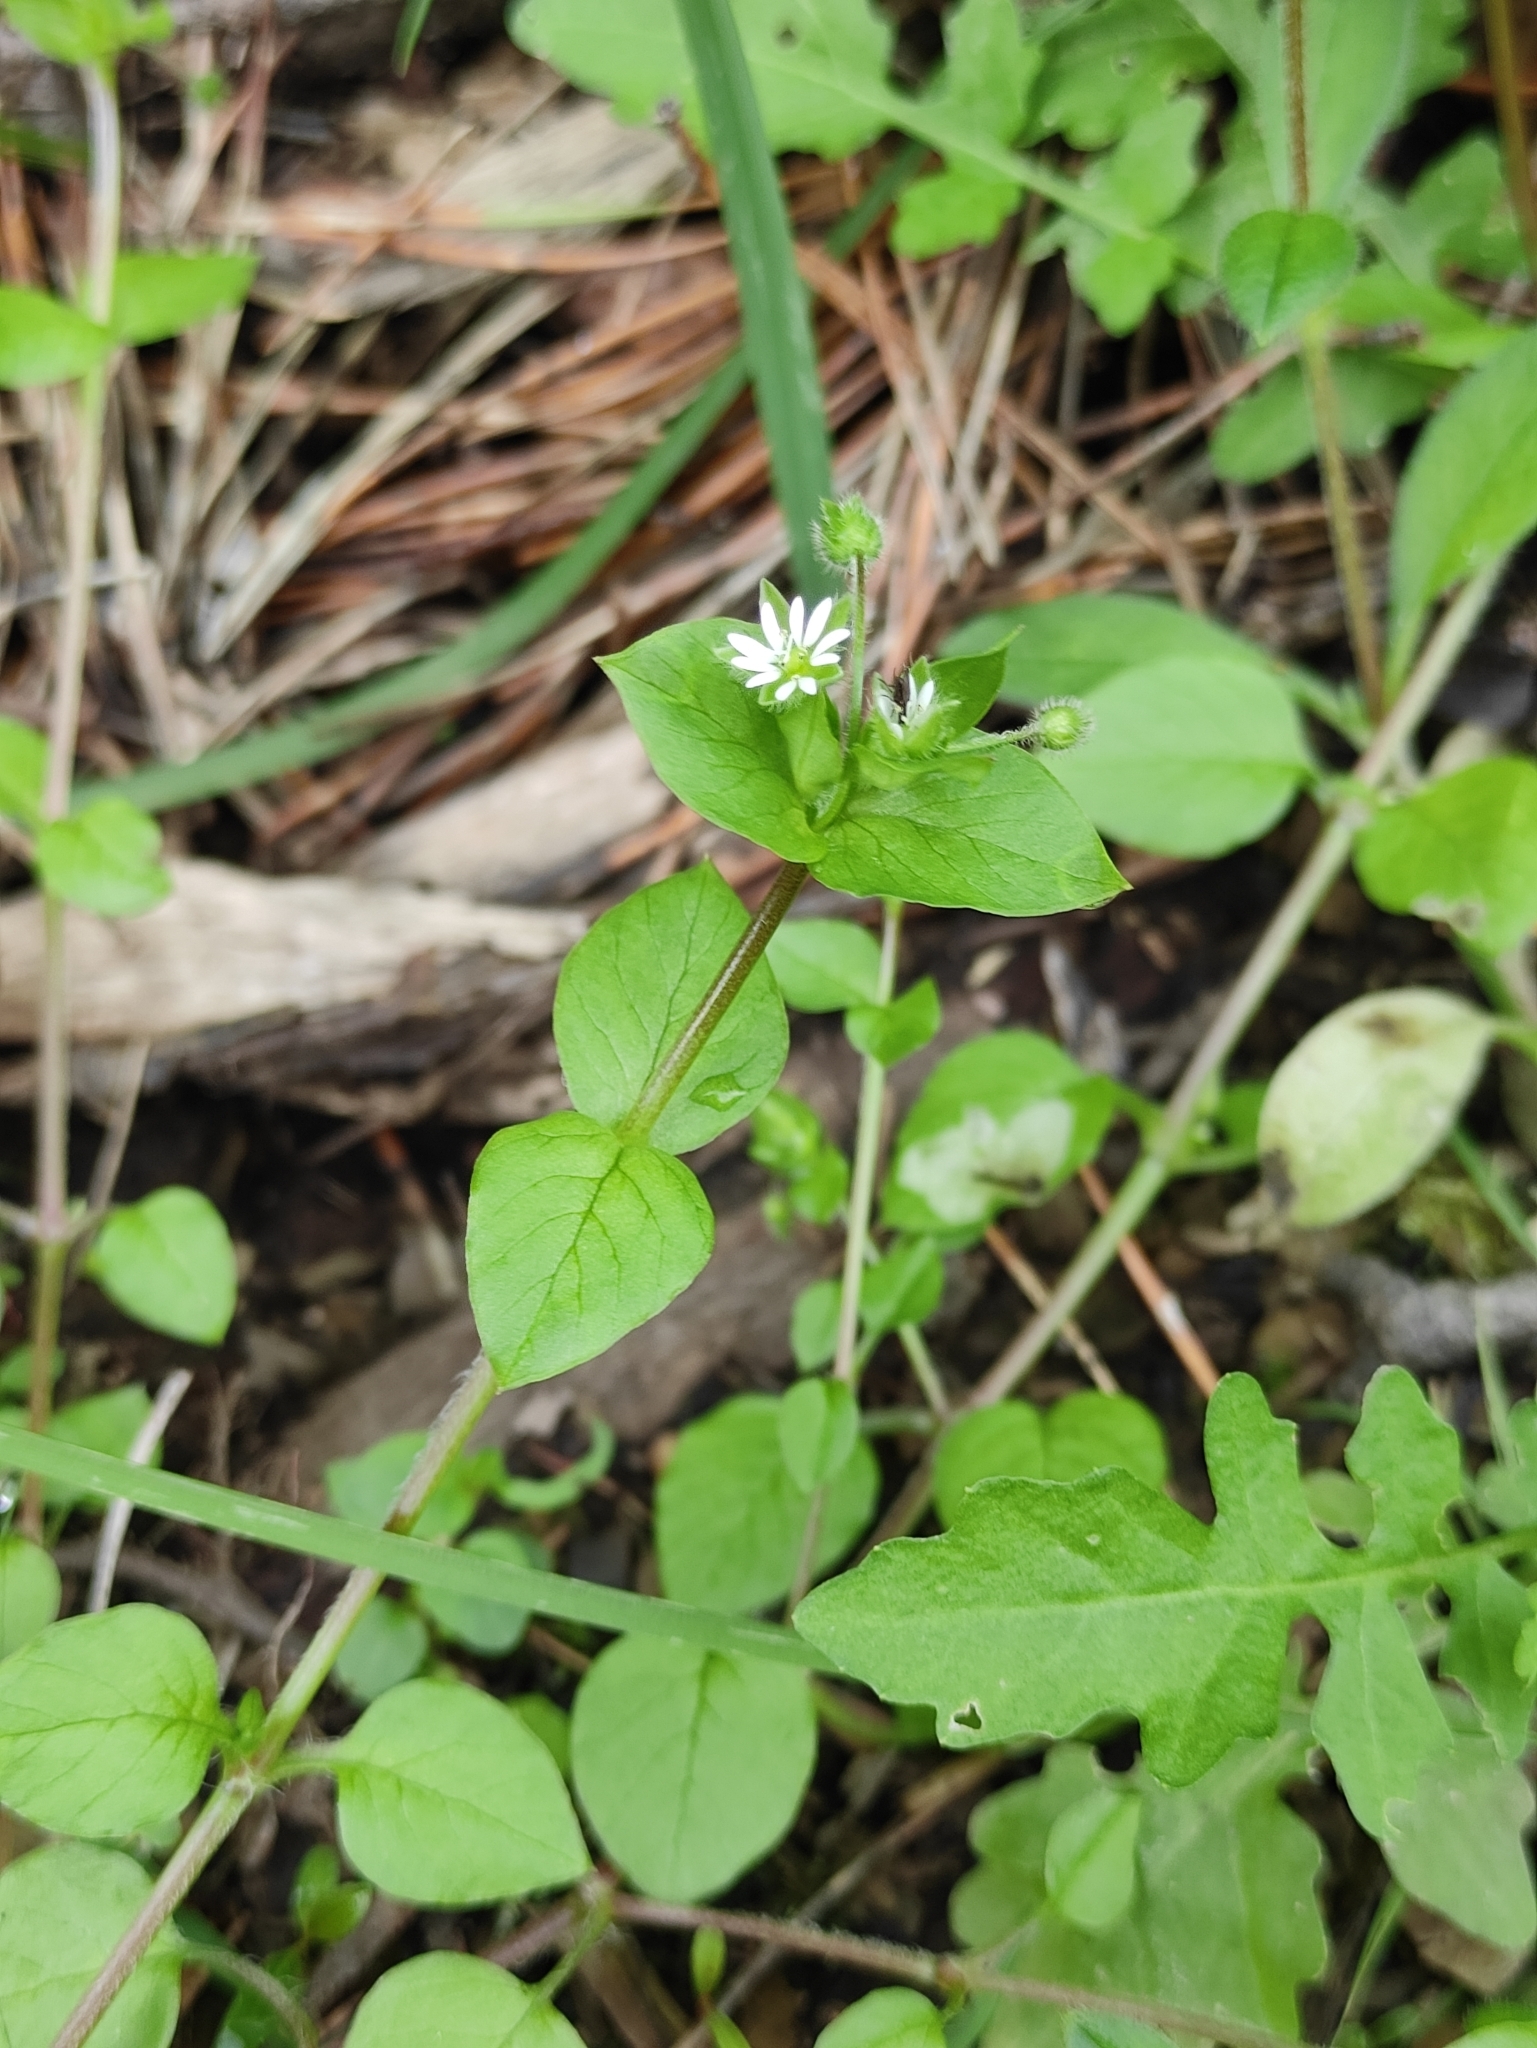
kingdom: Plantae
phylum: Tracheophyta
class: Magnoliopsida
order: Caryophyllales
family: Caryophyllaceae
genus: Stellaria
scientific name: Stellaria media
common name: Common chickweed
